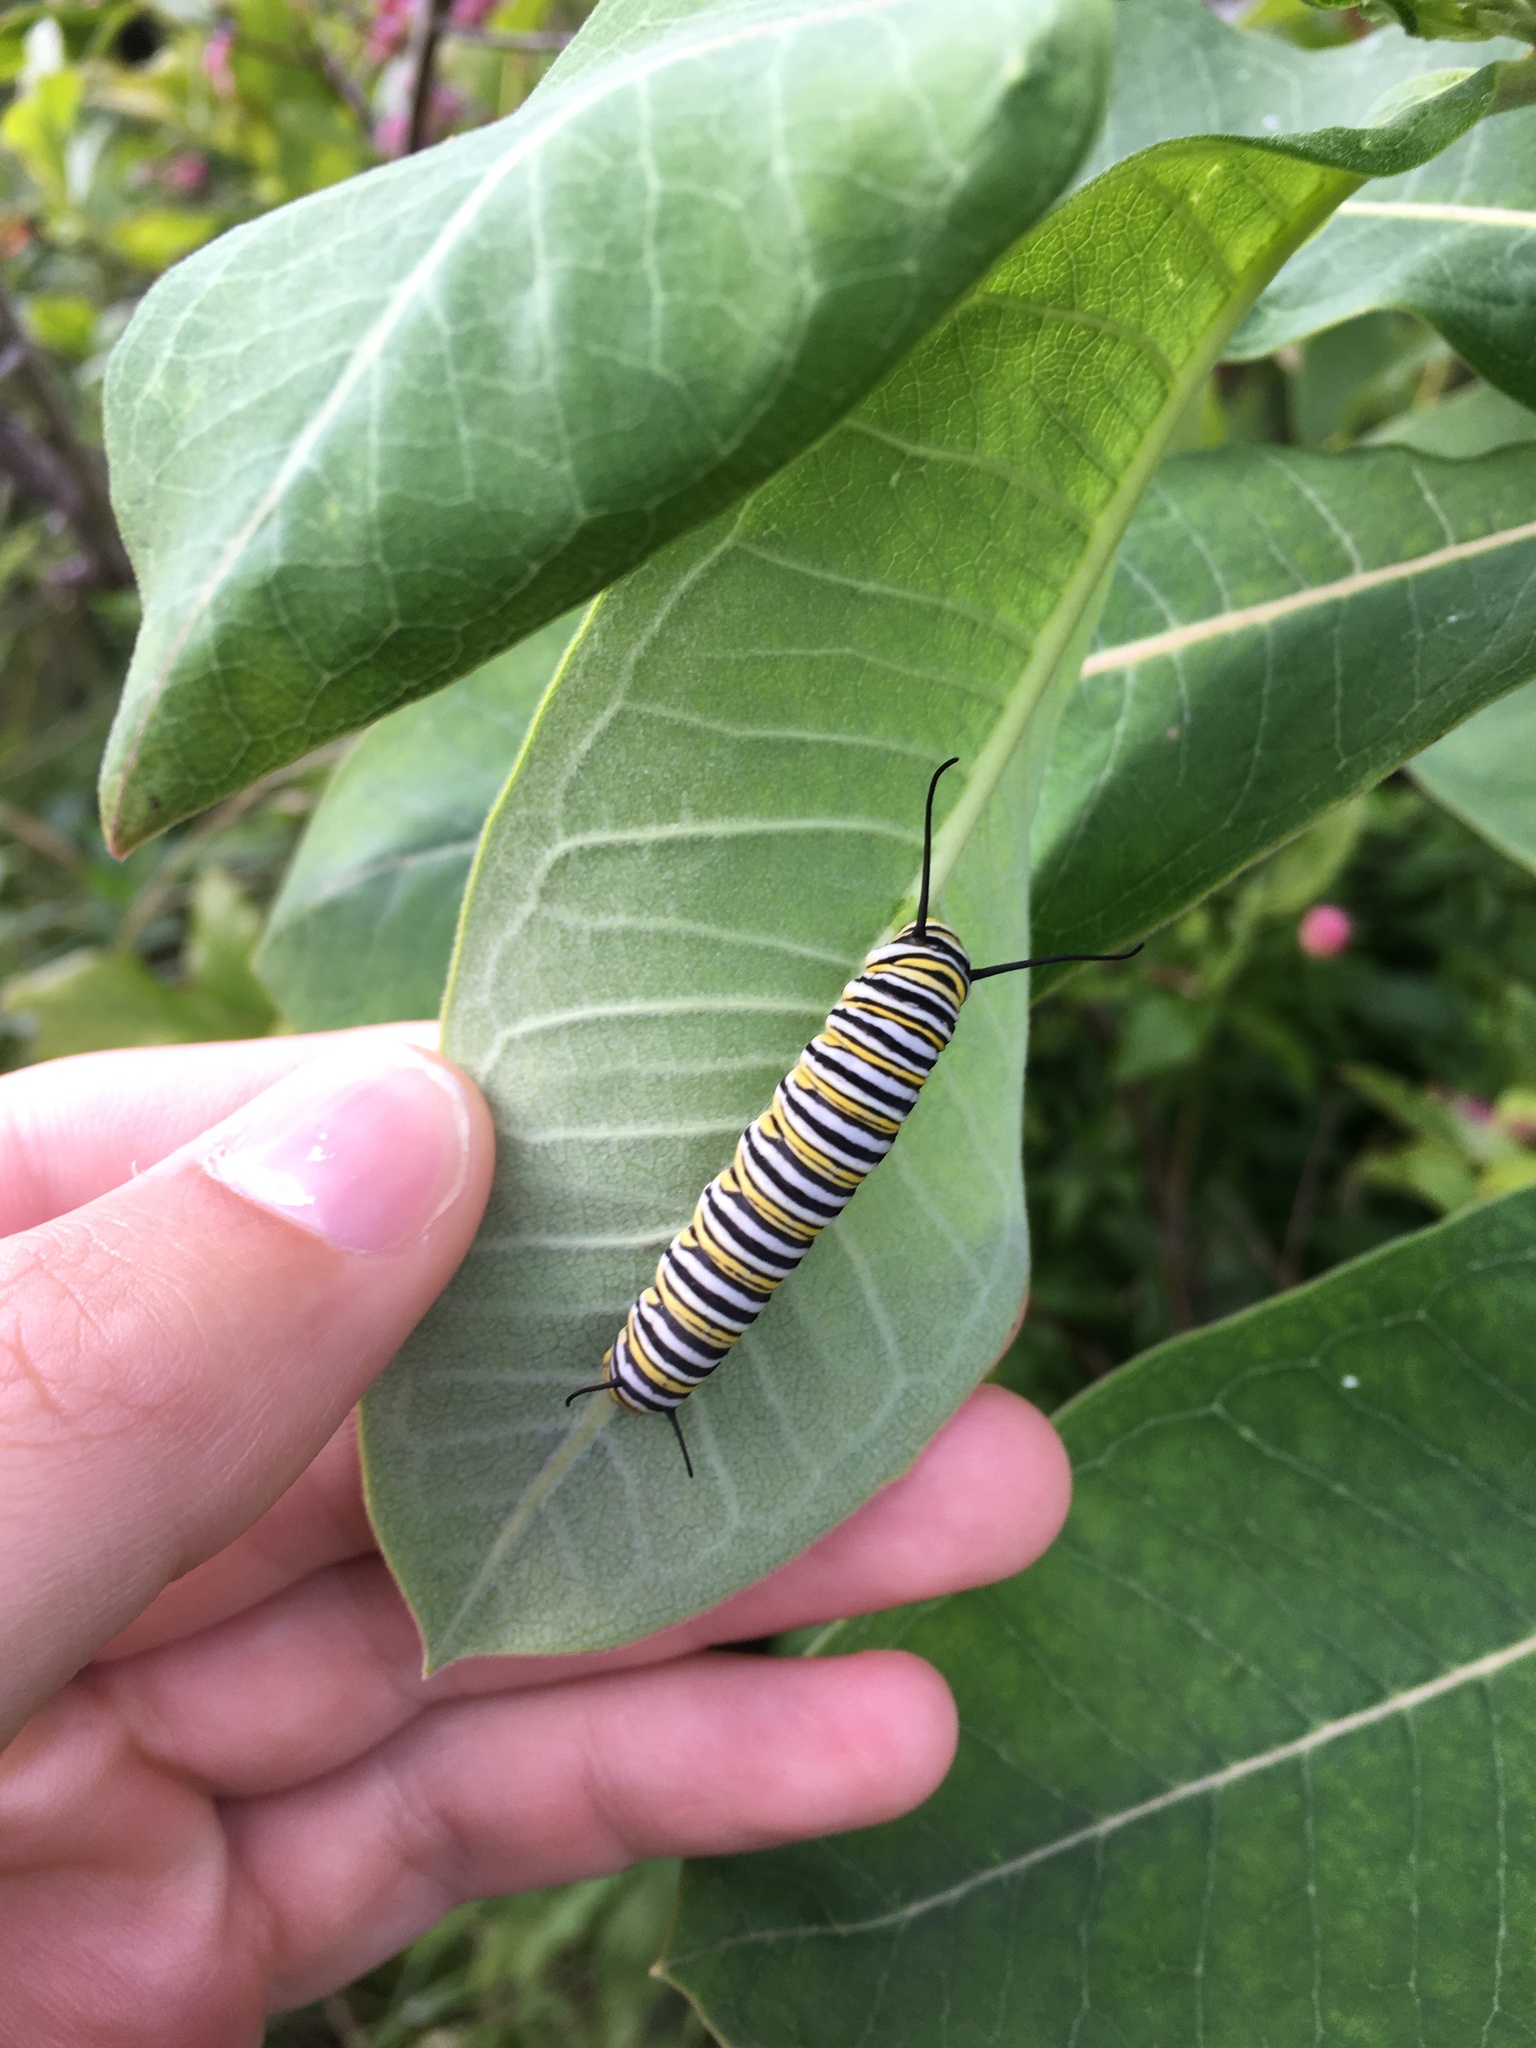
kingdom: Animalia
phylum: Arthropoda
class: Insecta
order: Lepidoptera
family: Nymphalidae
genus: Danaus
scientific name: Danaus plexippus
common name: Monarch
